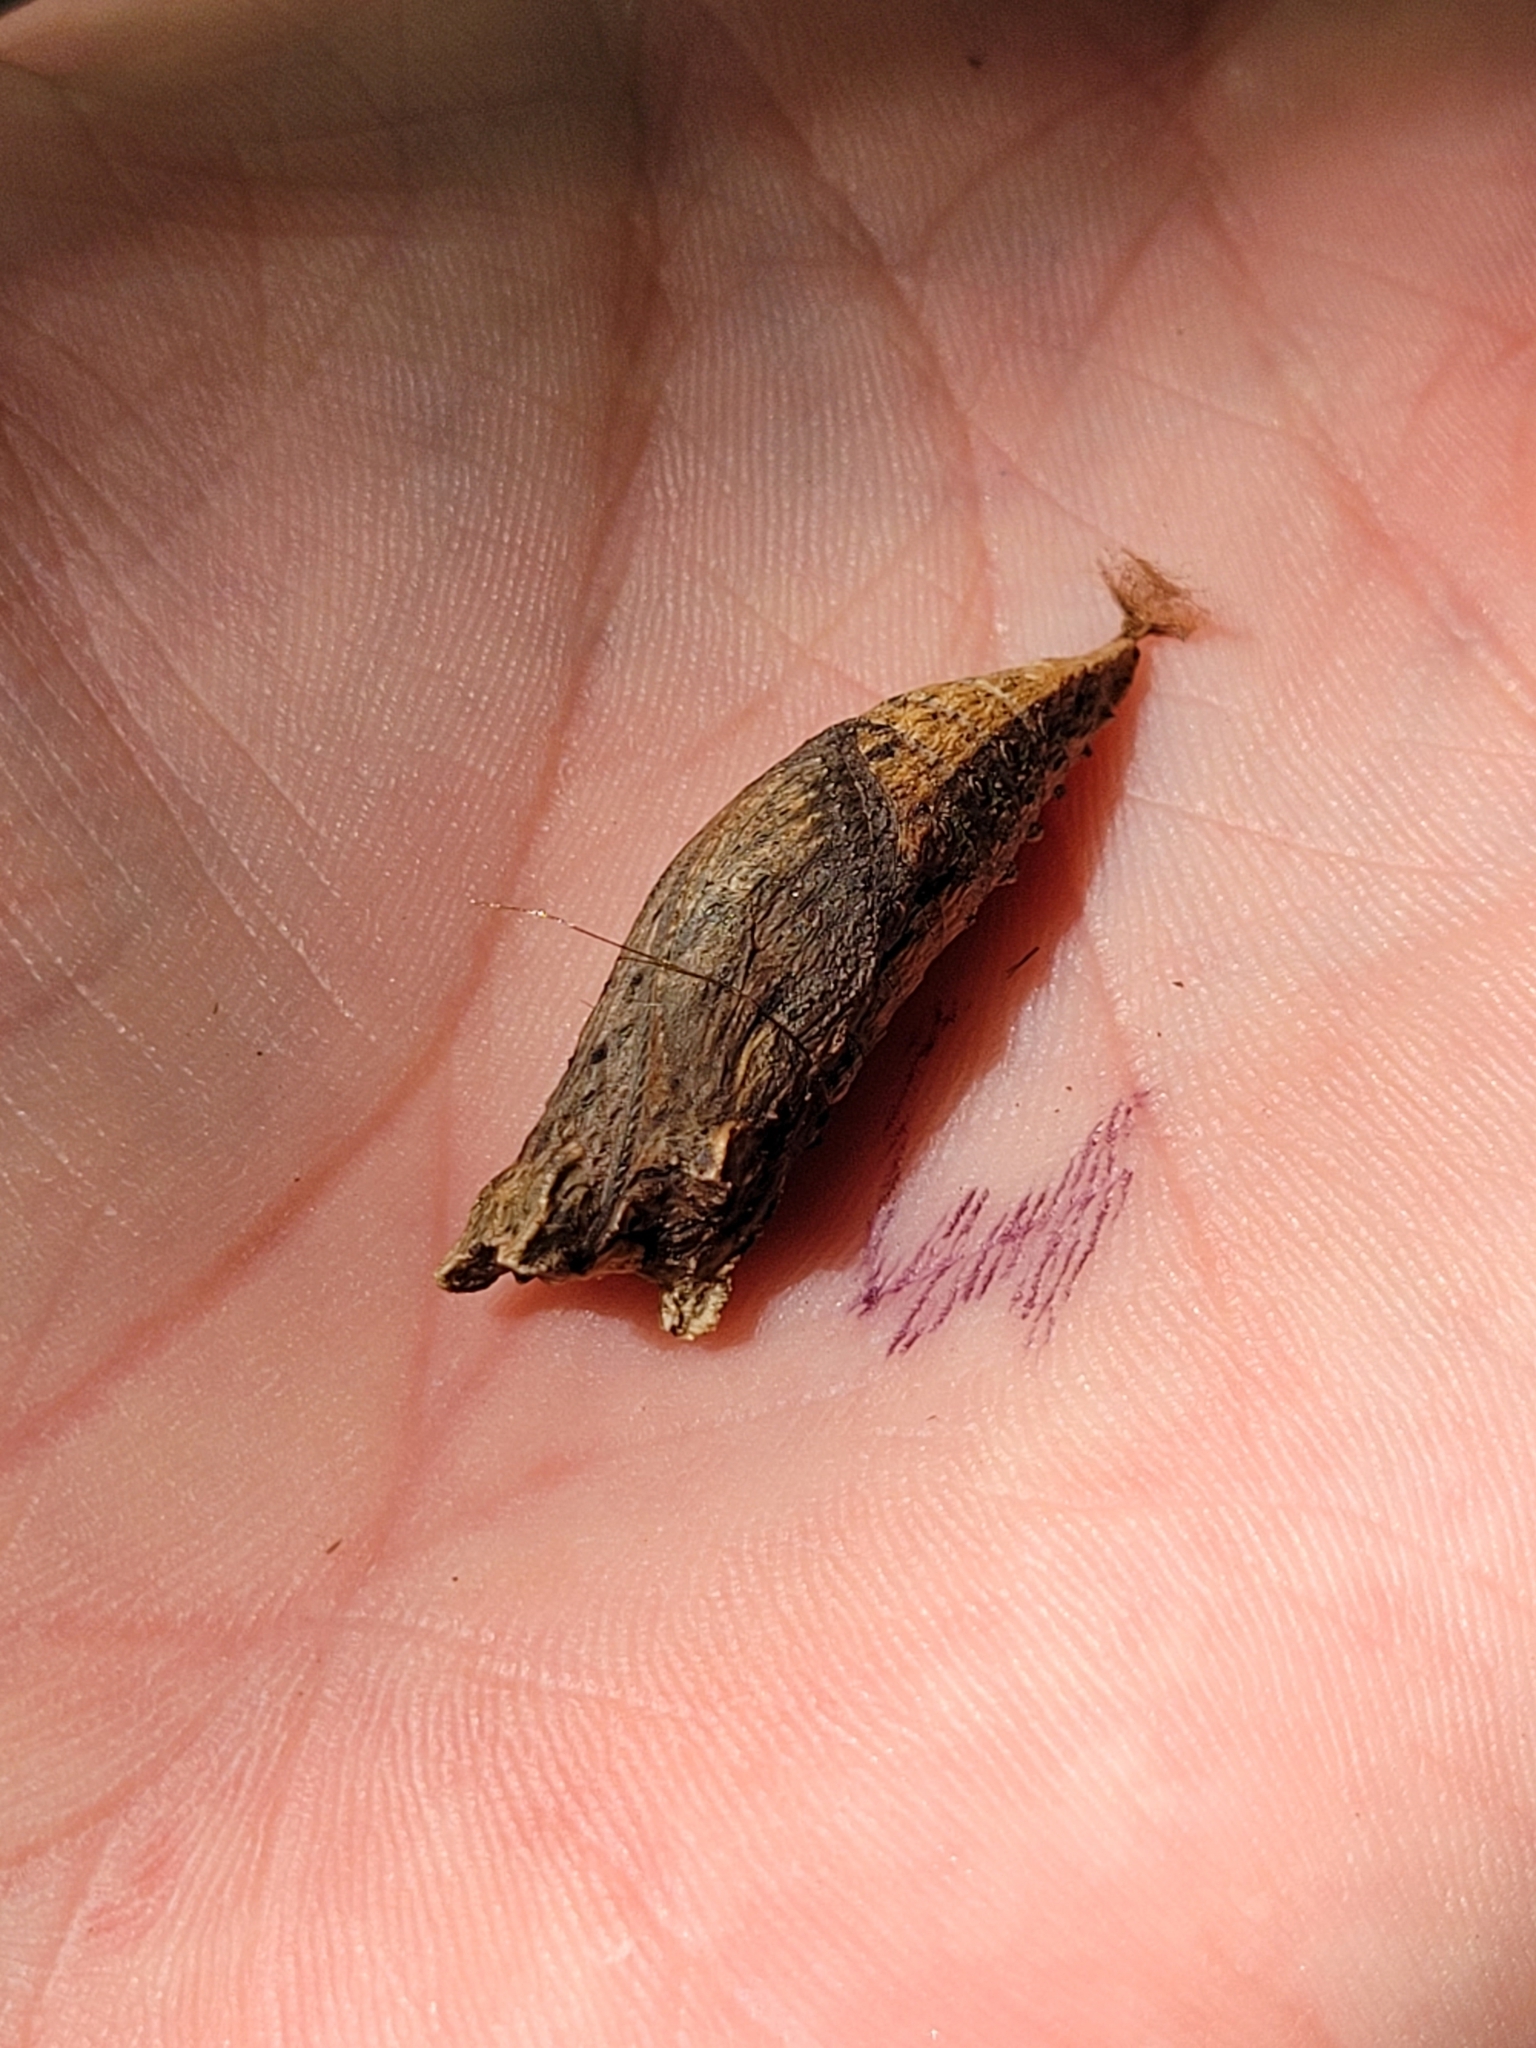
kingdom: Animalia
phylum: Arthropoda
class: Insecta
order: Lepidoptera
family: Papilionidae
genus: Papilio
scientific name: Papilio glaucus
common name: Tiger swallowtail
